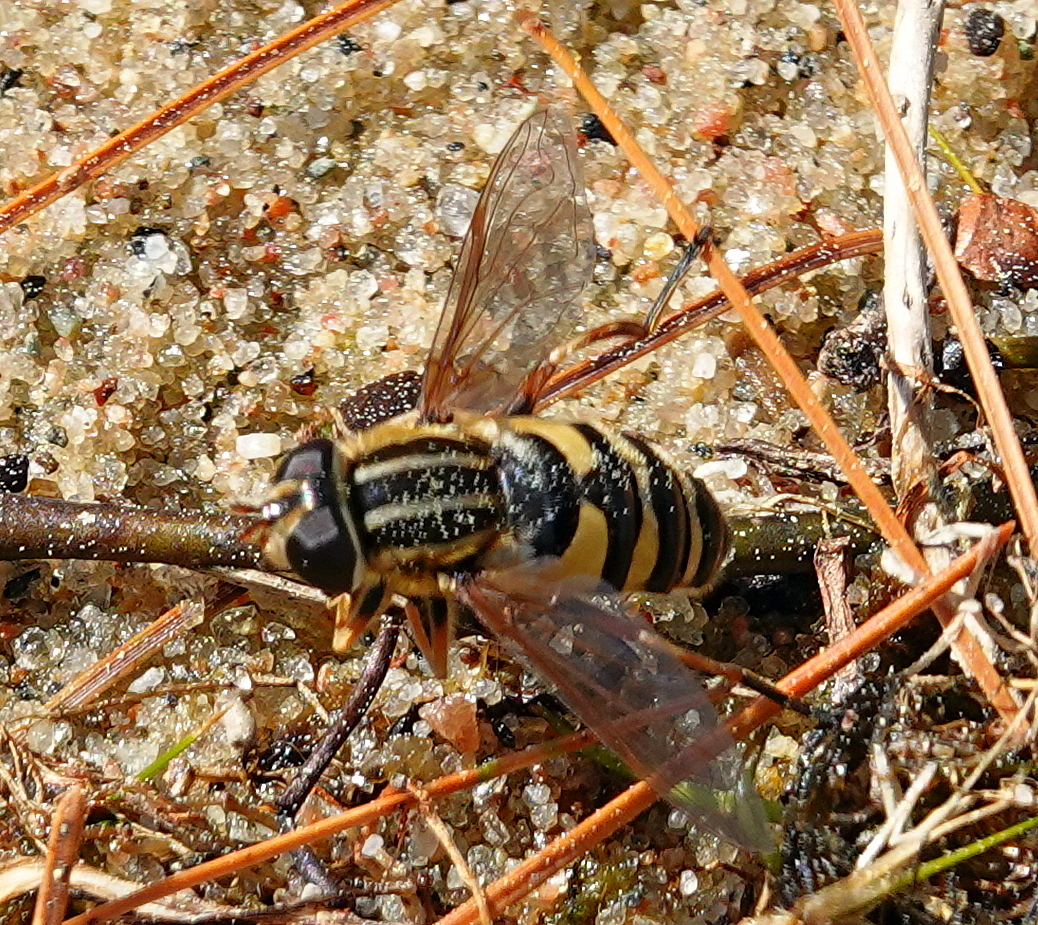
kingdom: Animalia
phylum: Arthropoda
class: Insecta
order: Diptera
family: Syrphidae
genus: Helophilus
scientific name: Helophilus fasciatus
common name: Narrow-headed marsh fly
